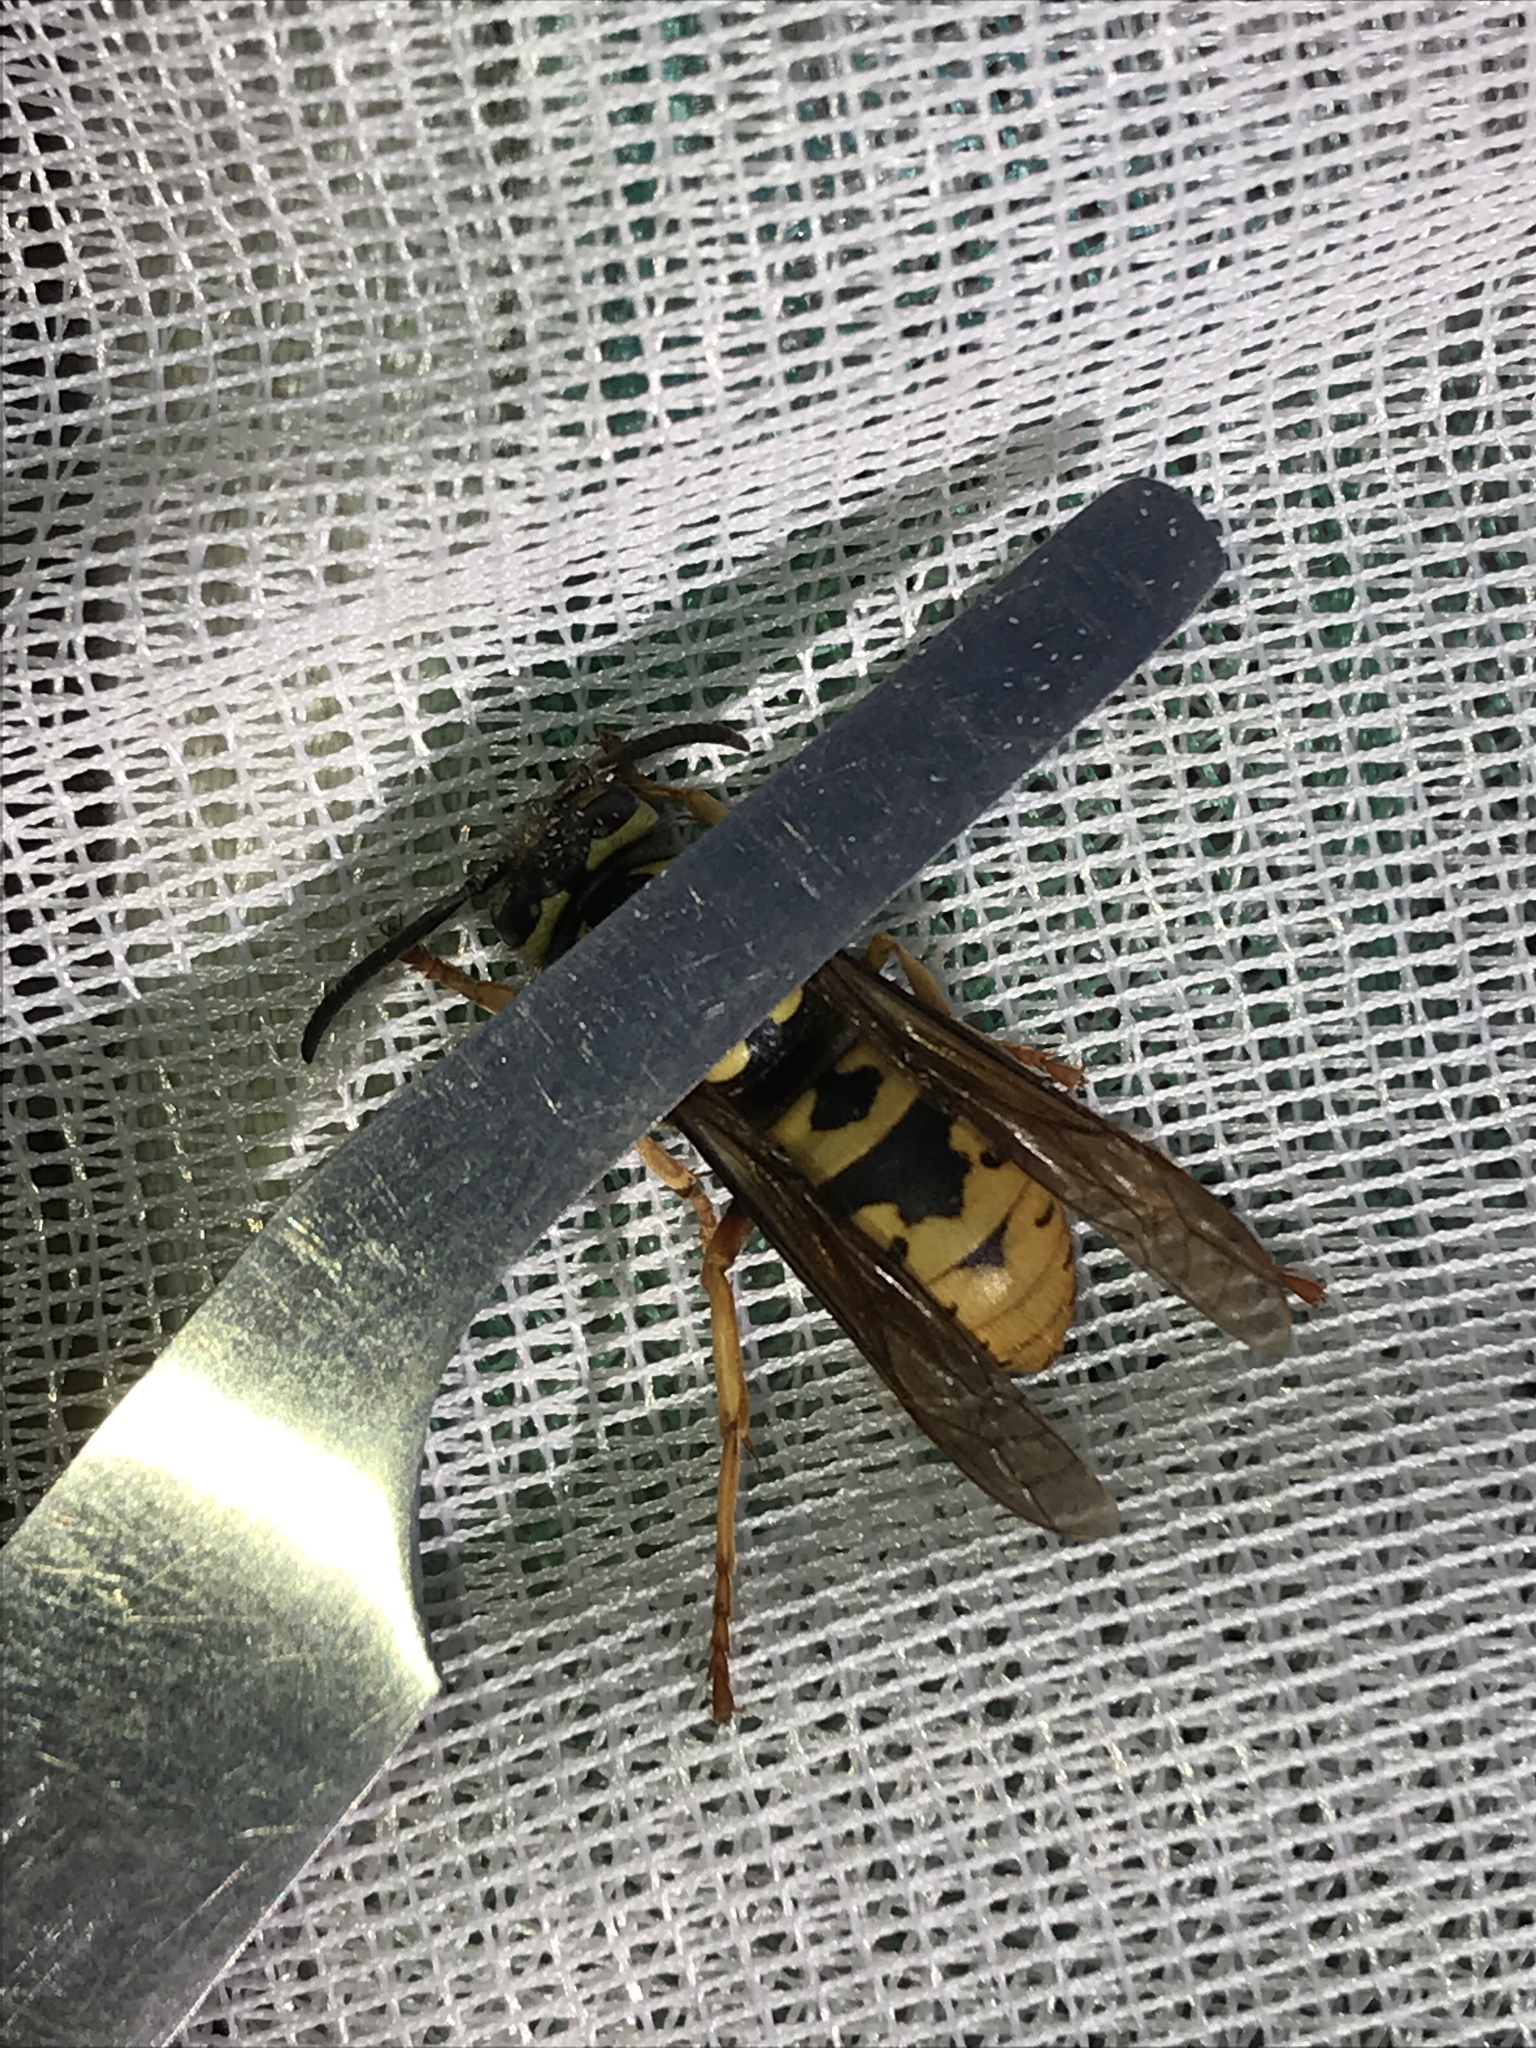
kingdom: Animalia
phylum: Arthropoda
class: Insecta
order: Hymenoptera
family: Vespidae
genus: Vespula
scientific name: Vespula atropilosa
